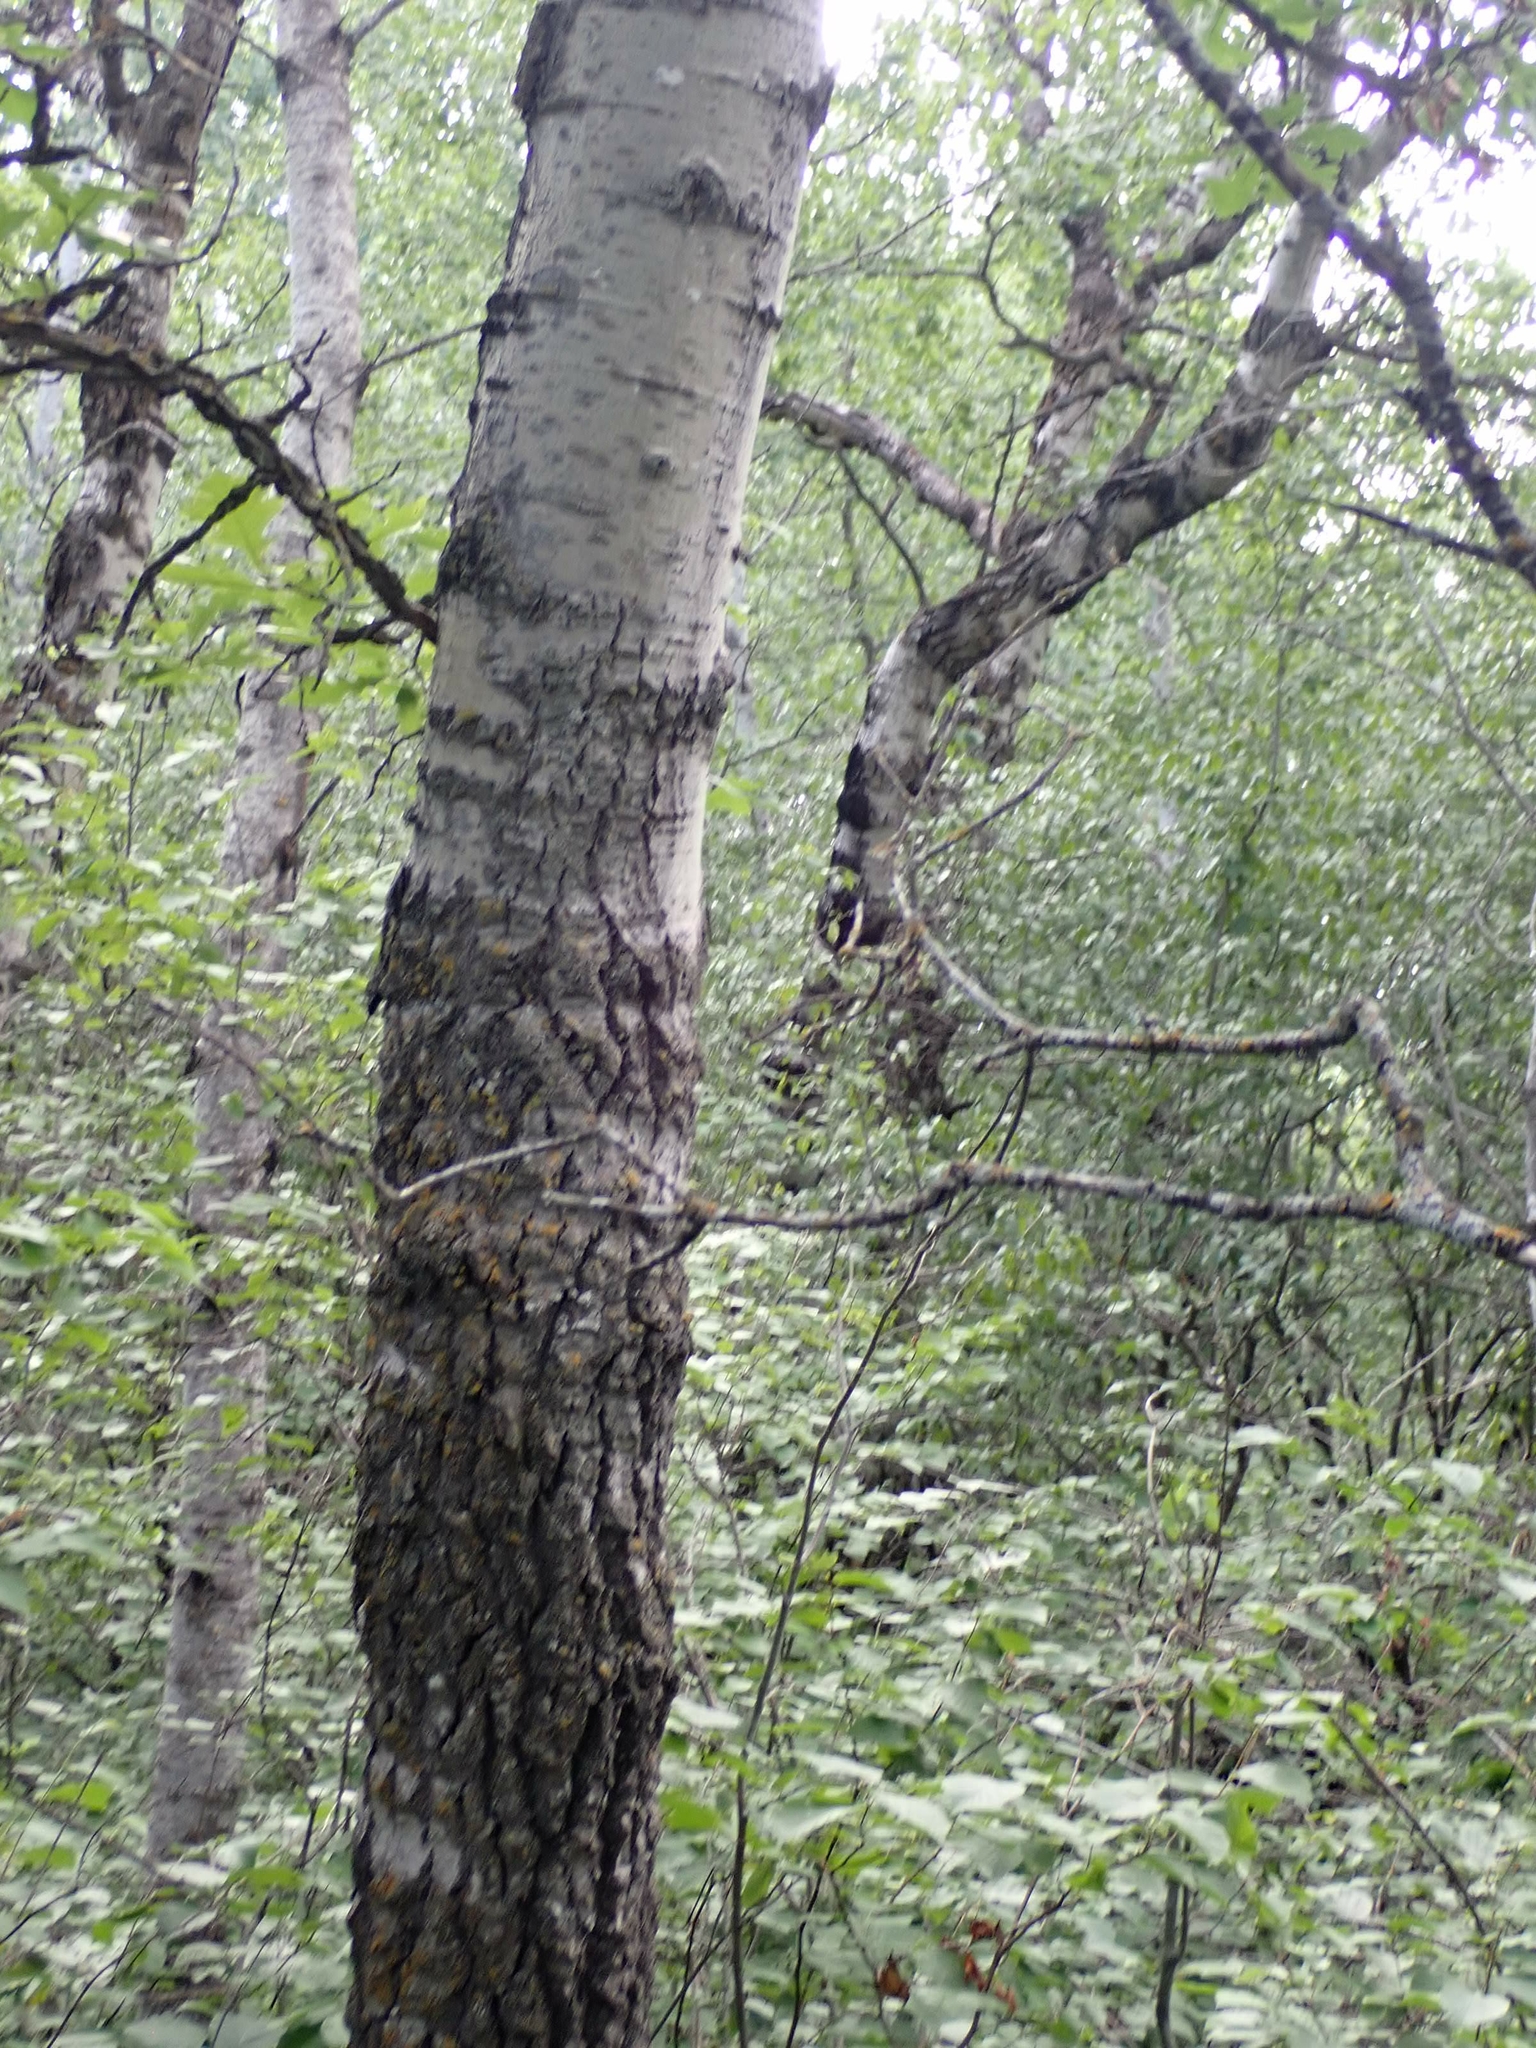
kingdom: Plantae
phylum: Tracheophyta
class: Magnoliopsida
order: Malpighiales
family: Salicaceae
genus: Populus
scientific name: Populus tremuloides
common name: Quaking aspen
